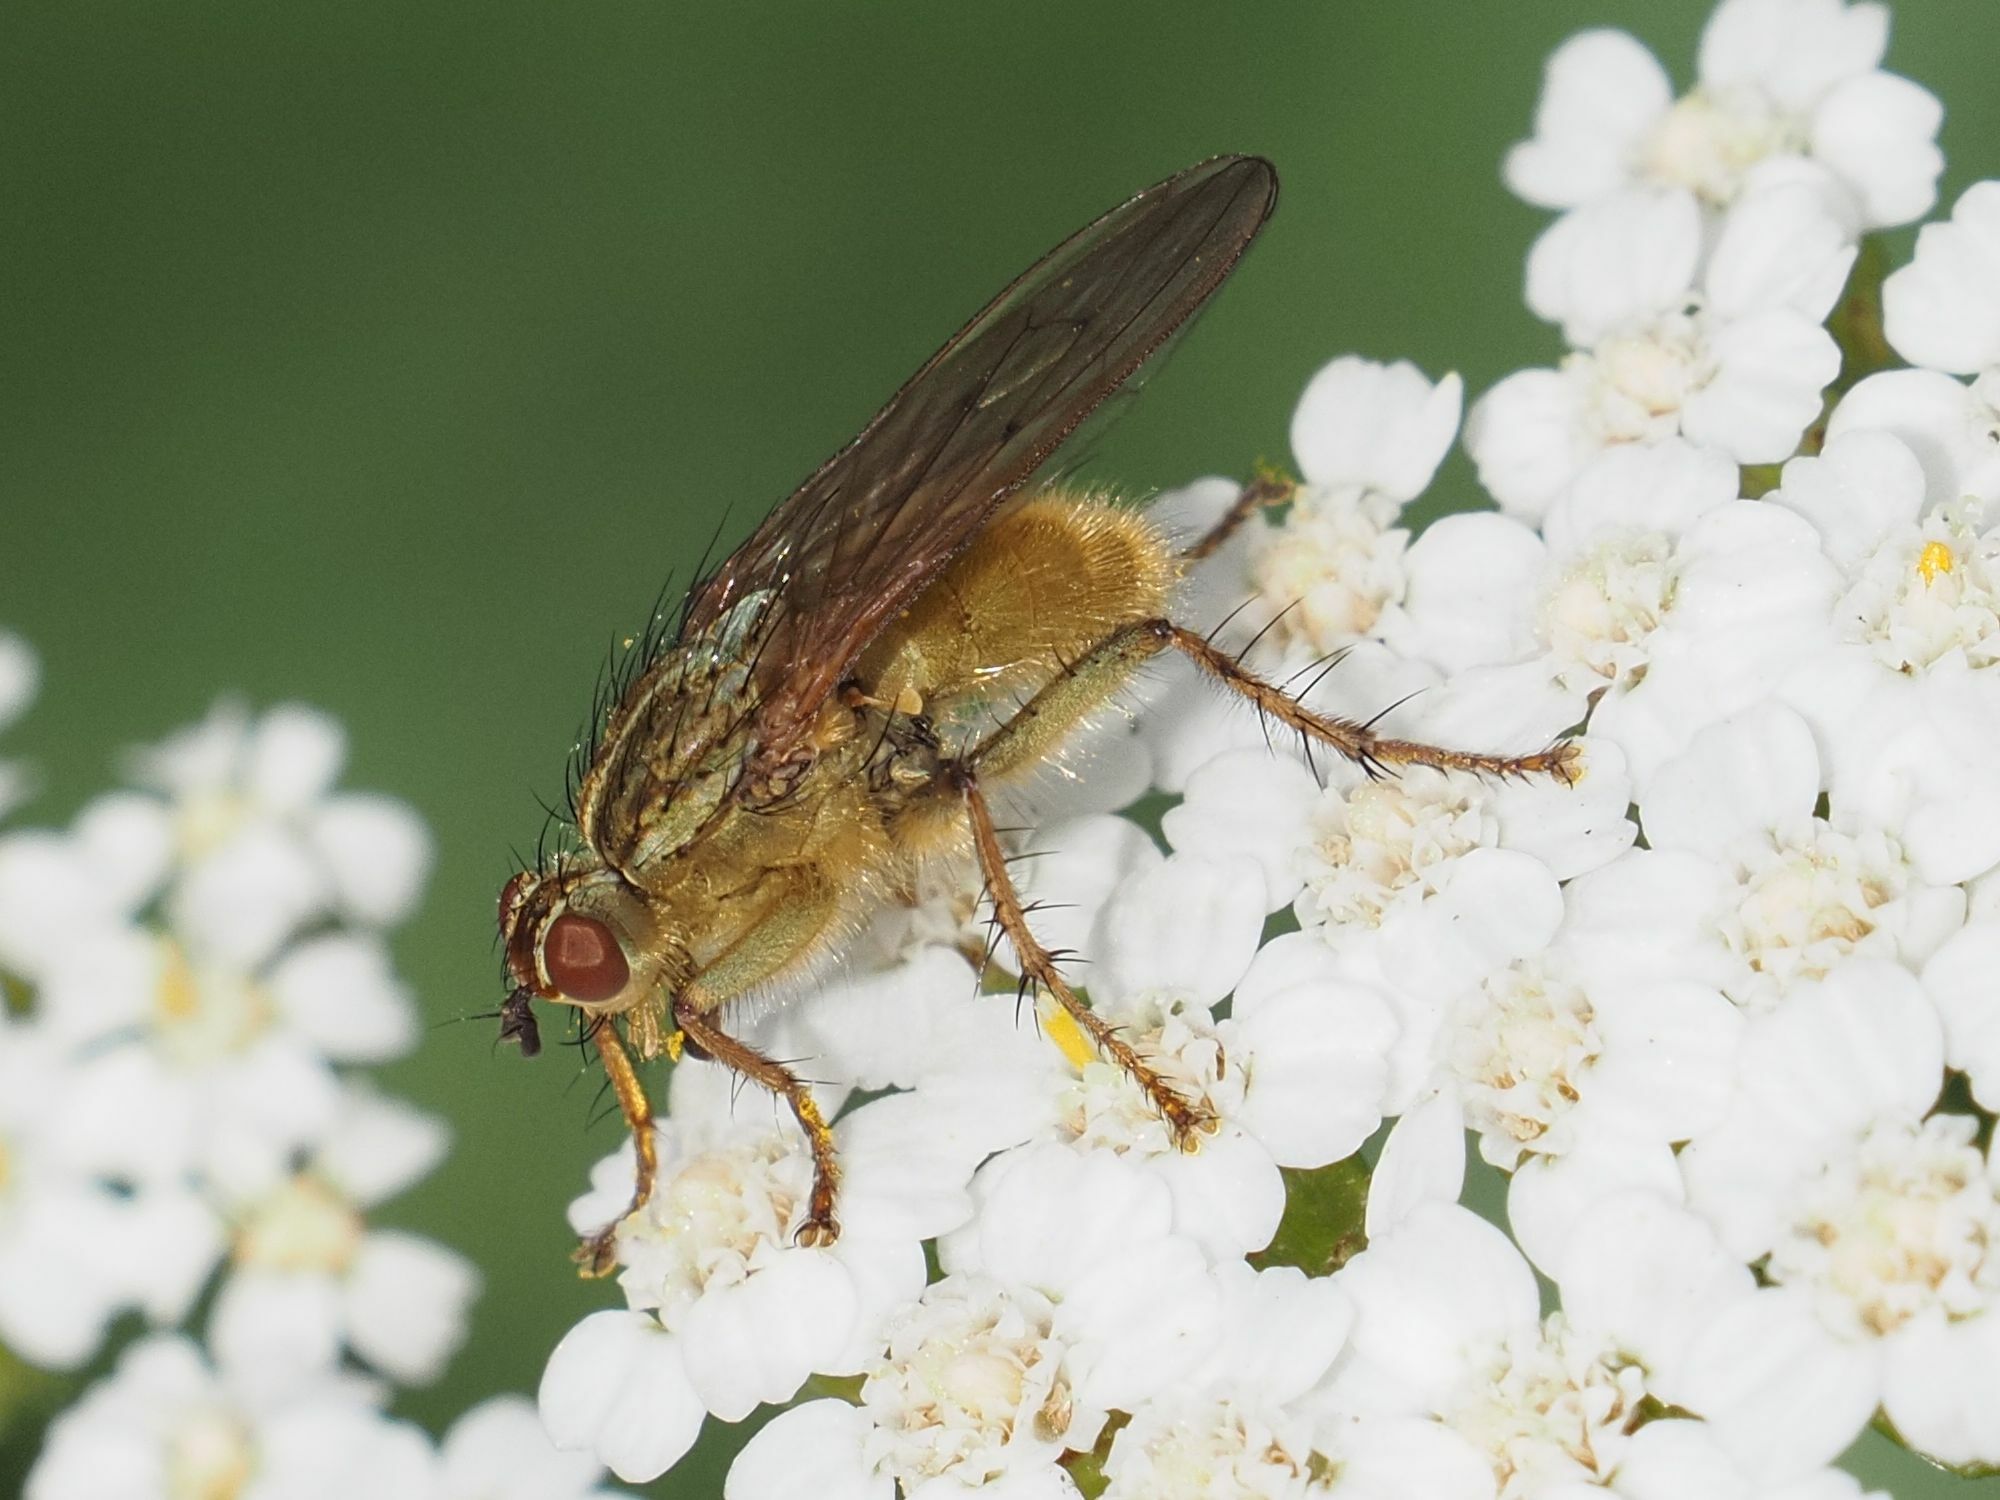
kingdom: Animalia
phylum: Arthropoda
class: Insecta
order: Diptera
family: Scathophagidae
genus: Scathophaga
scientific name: Scathophaga stercoraria
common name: Yellow dung fly
